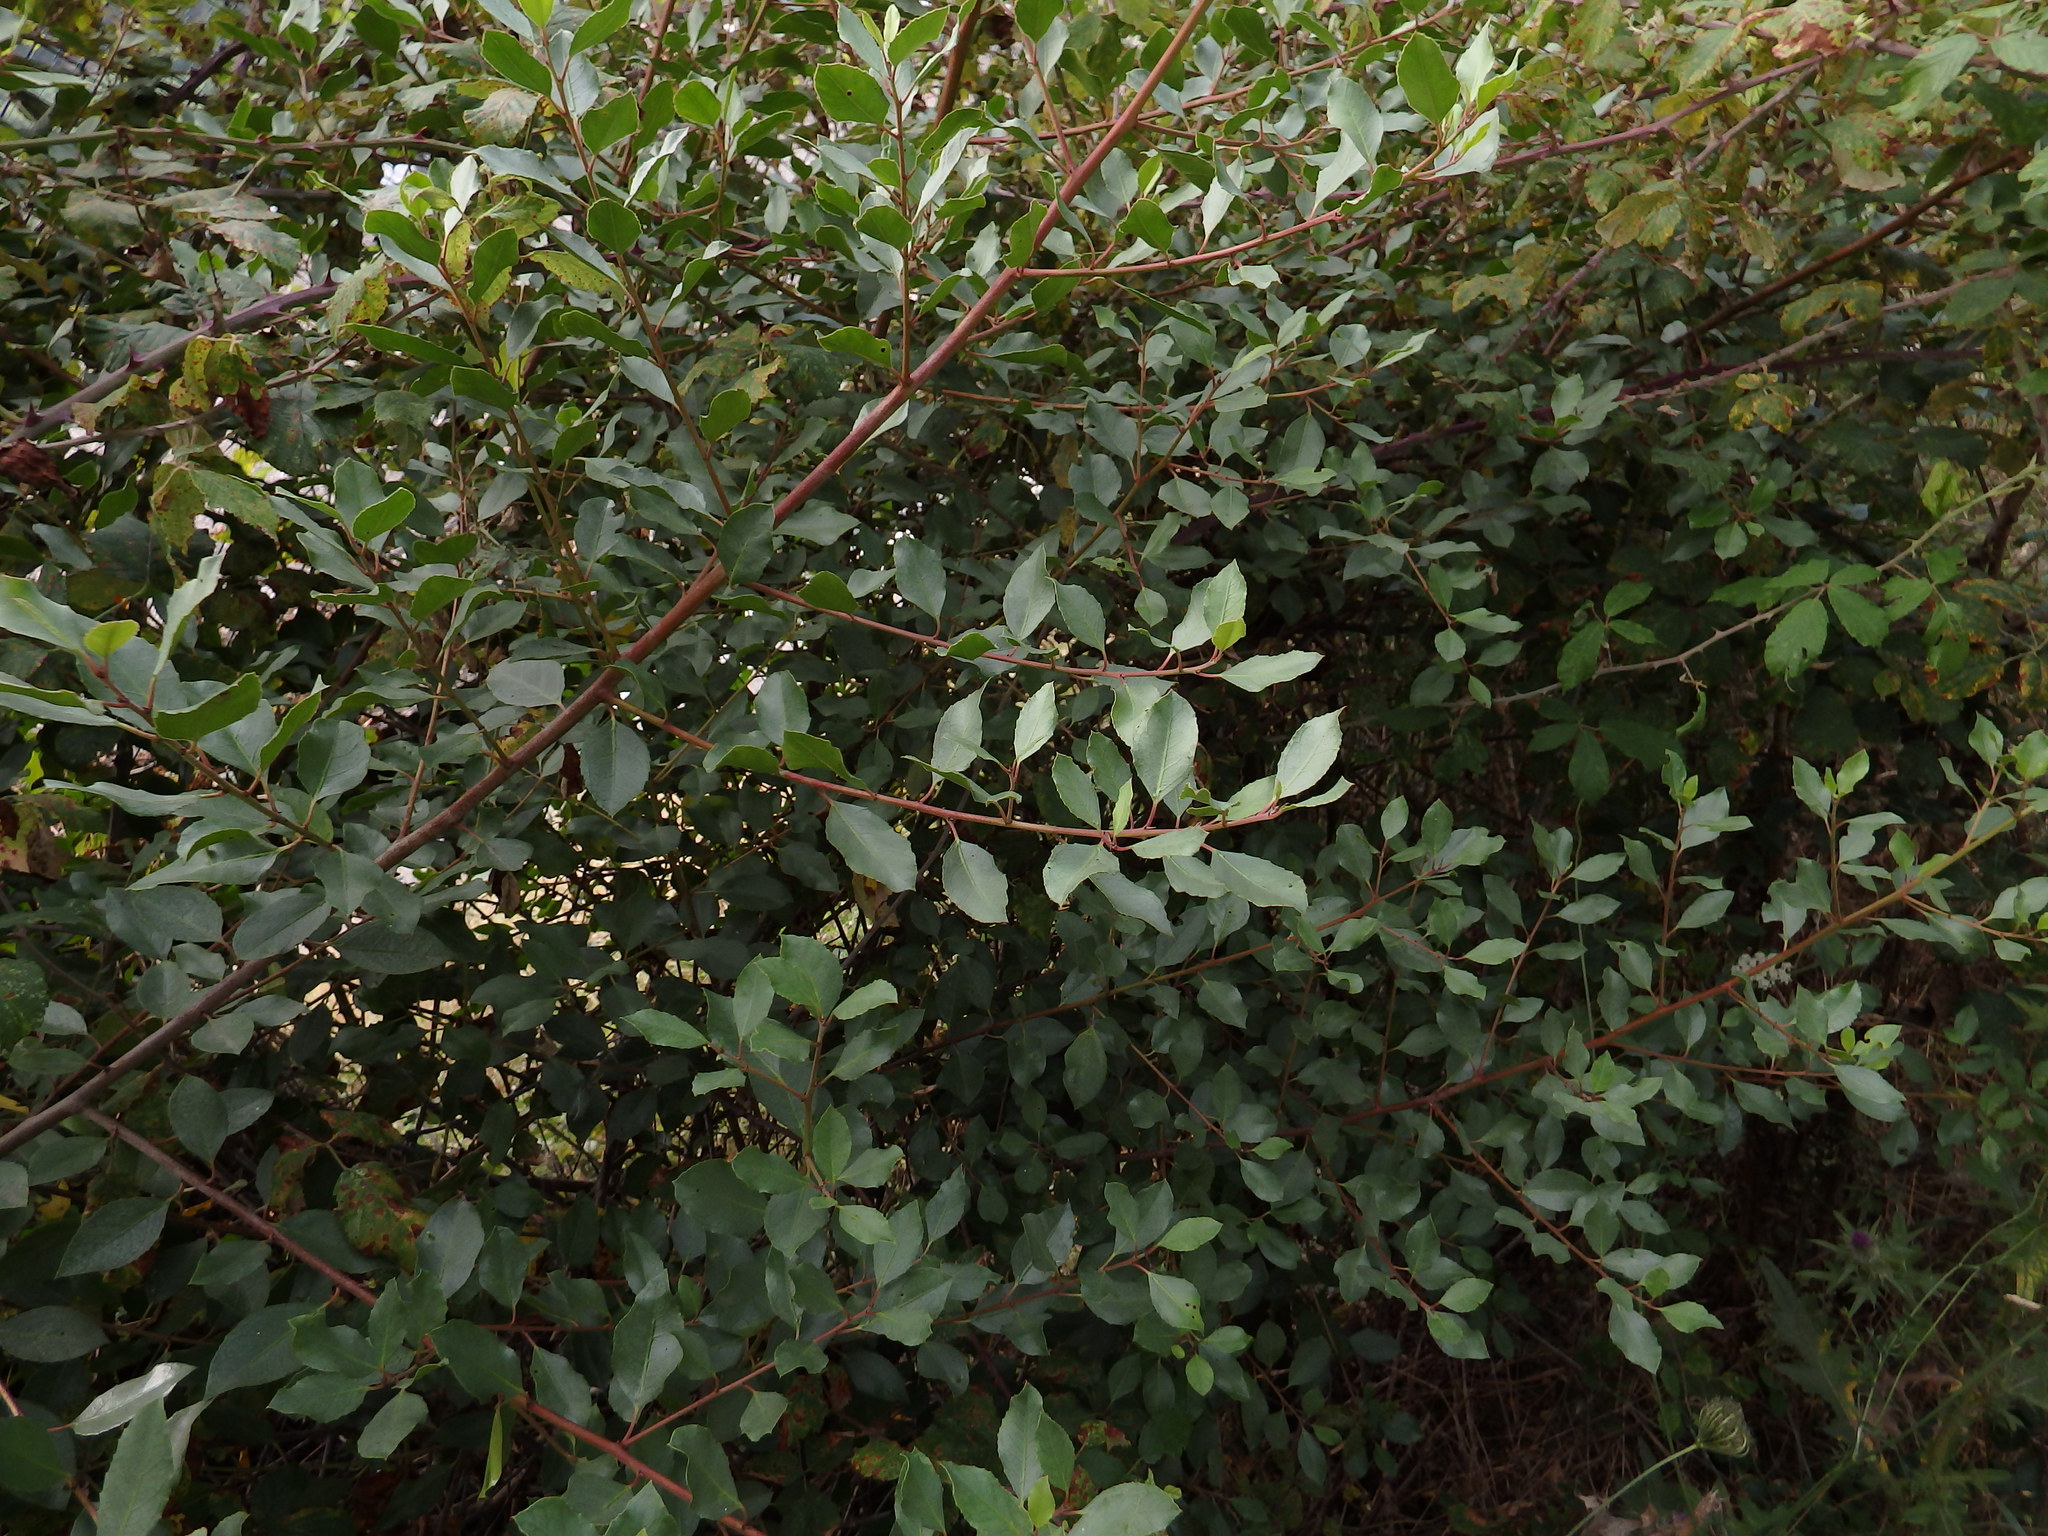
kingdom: Plantae
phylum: Tracheophyta
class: Magnoliopsida
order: Rosales
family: Rhamnaceae
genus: Rhamnus
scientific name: Rhamnus alaternus
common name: Mediterranean buckthorn
